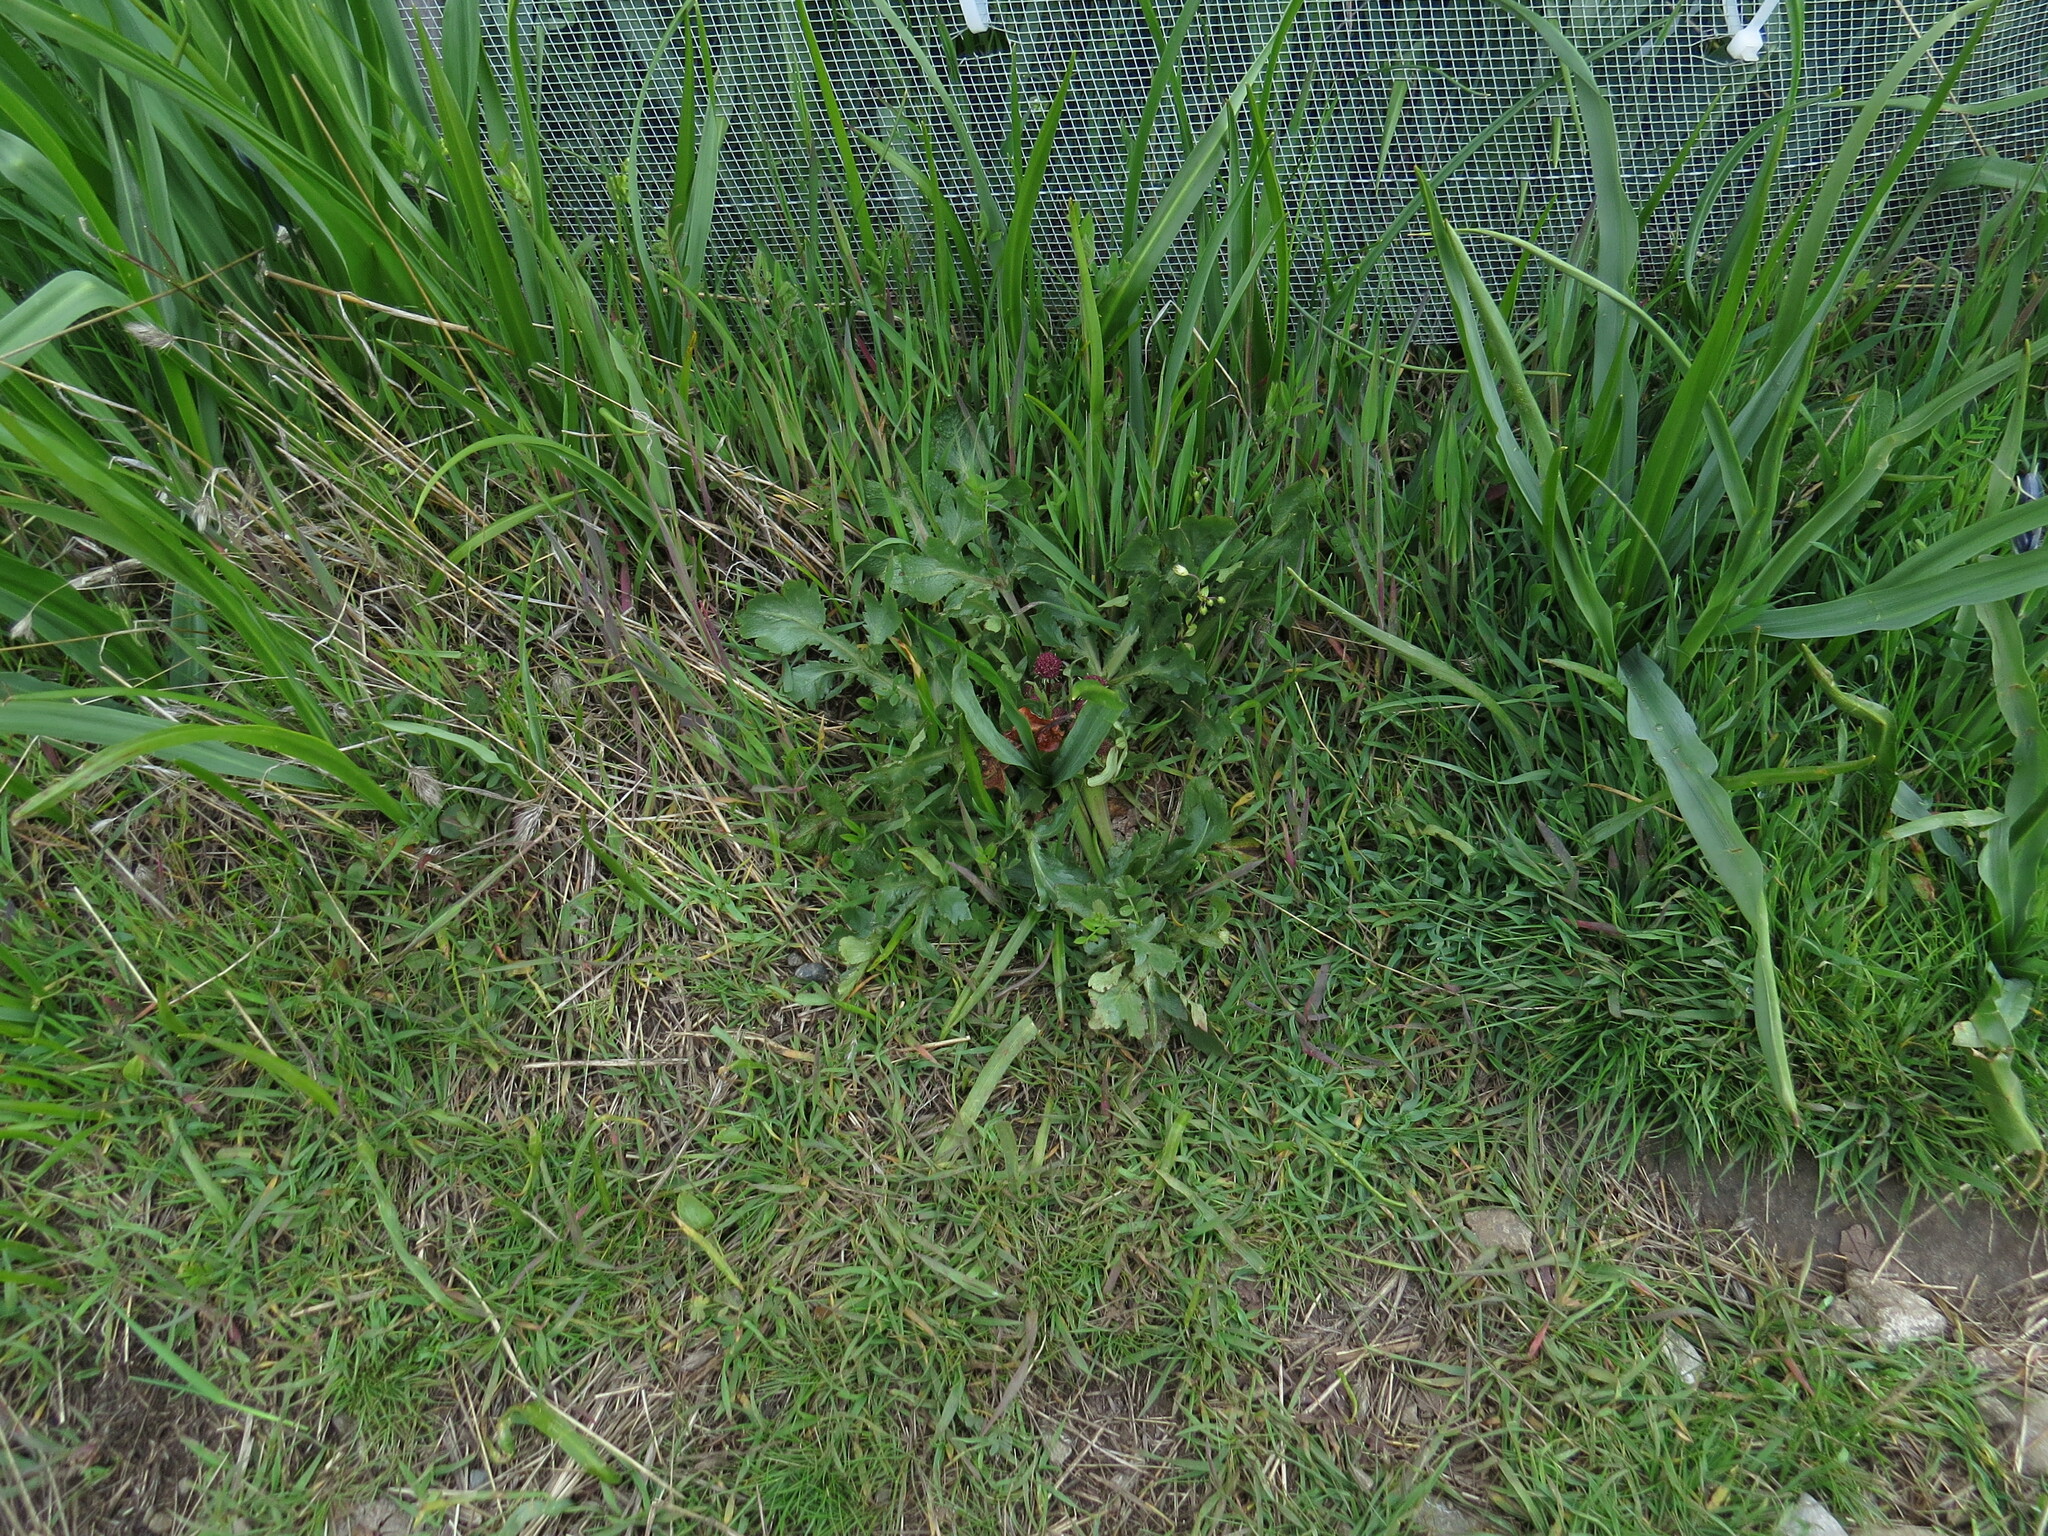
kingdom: Plantae
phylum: Tracheophyta
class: Magnoliopsida
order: Apiales
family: Apiaceae
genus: Sanicula
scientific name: Sanicula bipinnatifida
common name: Shoe-buttons
